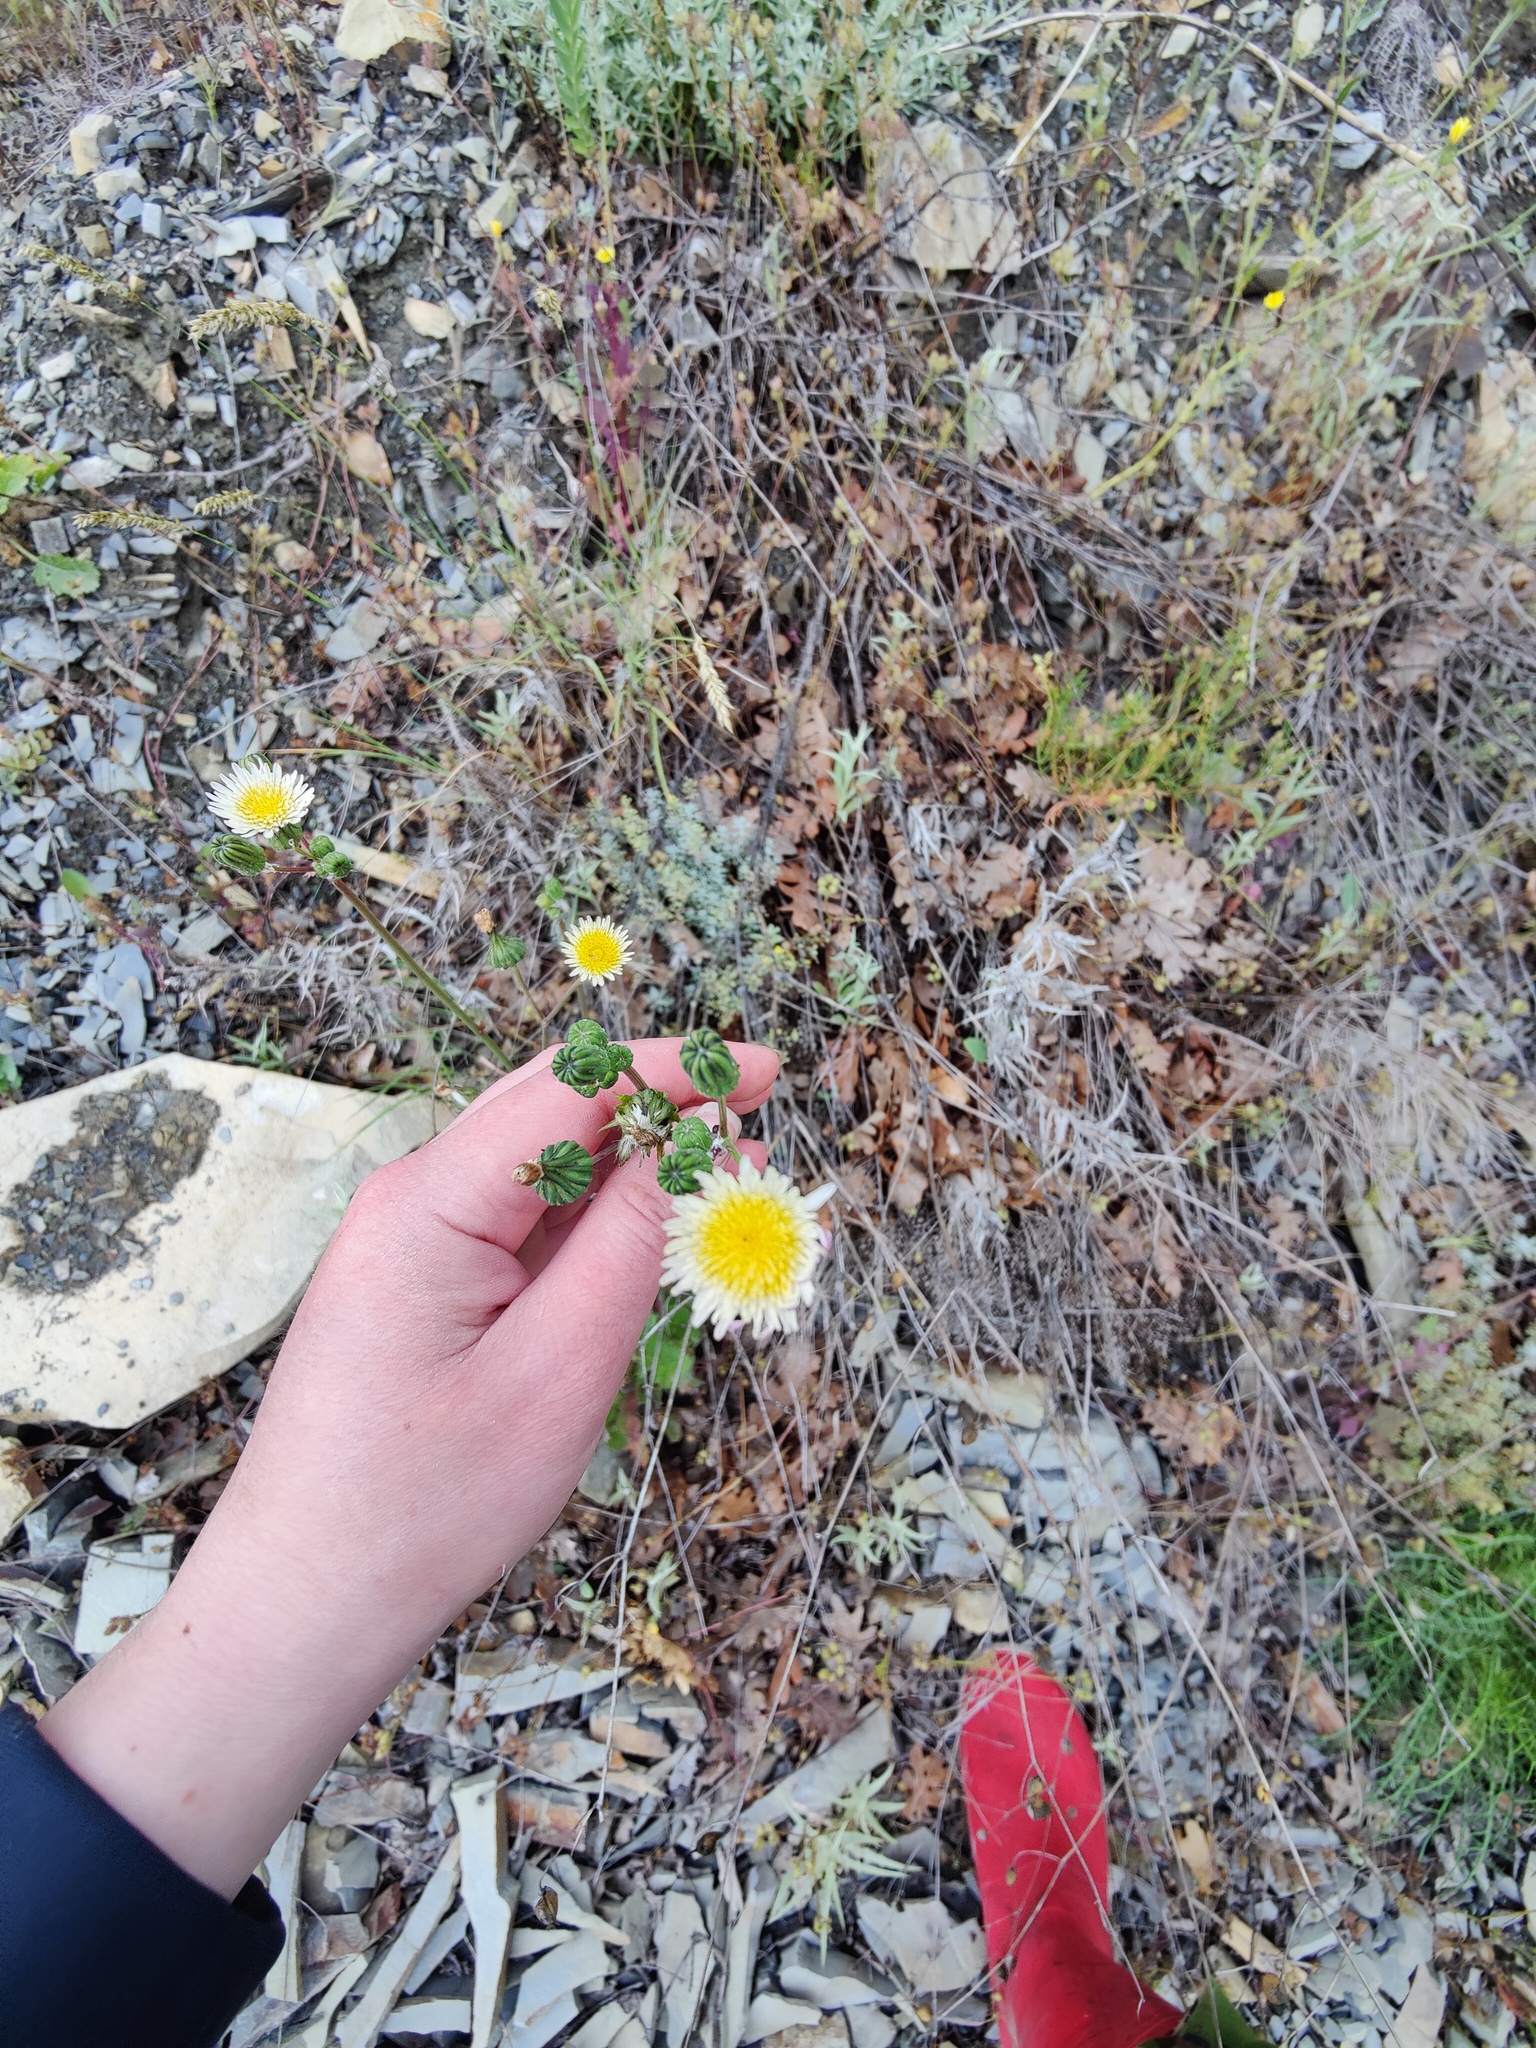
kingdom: Plantae
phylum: Tracheophyta
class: Magnoliopsida
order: Asterales
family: Asteraceae
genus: Sonchus
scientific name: Sonchus oleraceus
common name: Common sowthistle
